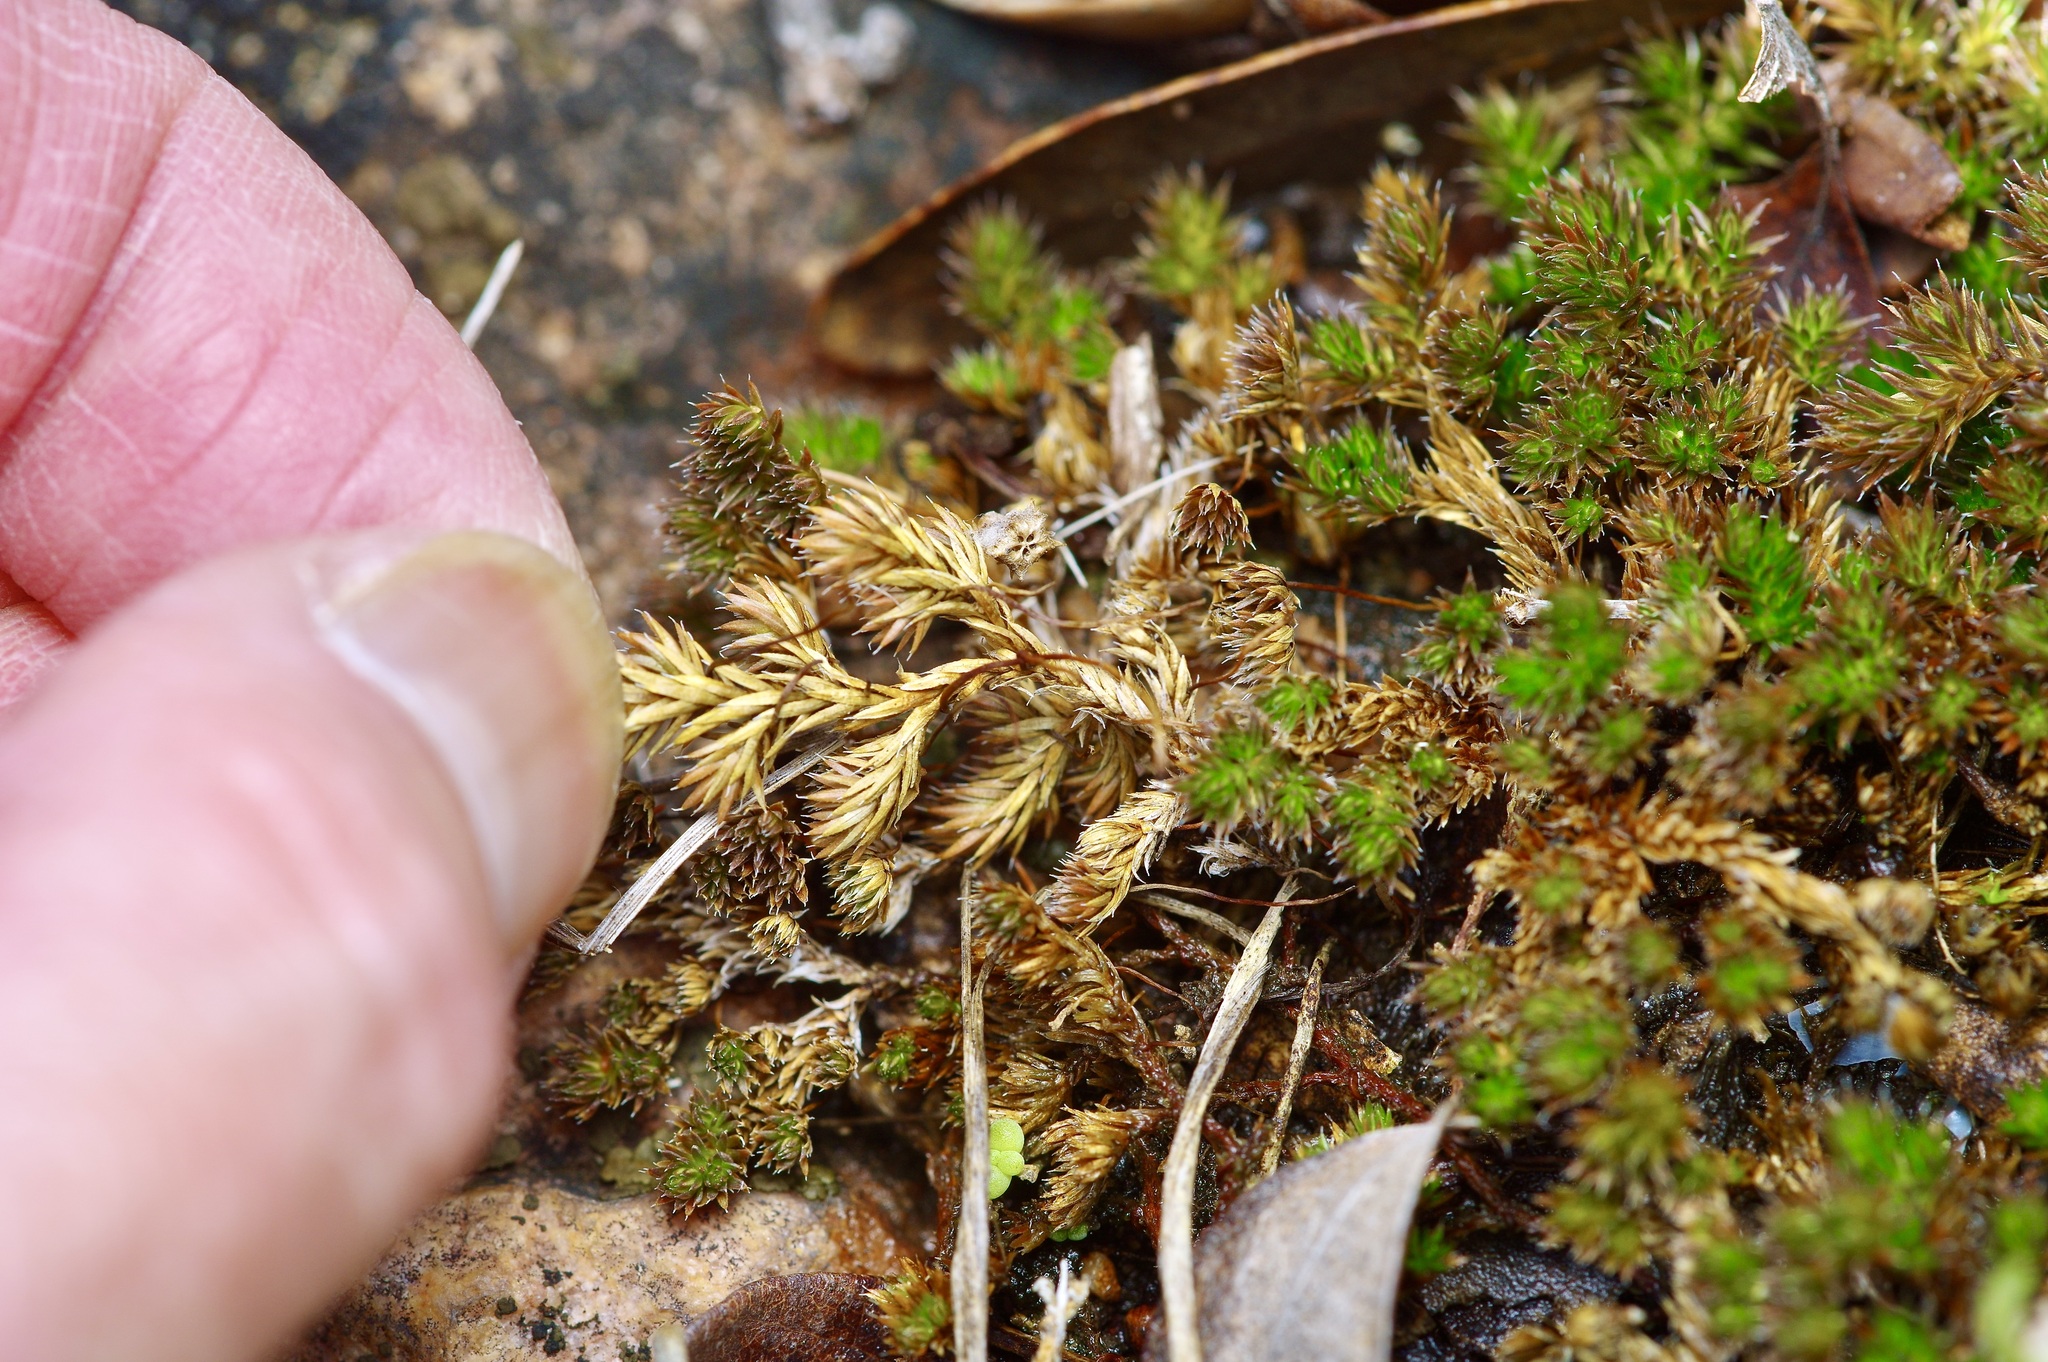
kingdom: Plantae
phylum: Tracheophyta
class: Lycopodiopsida
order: Selaginellales
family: Selaginellaceae
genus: Selaginella
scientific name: Selaginella peruviana
